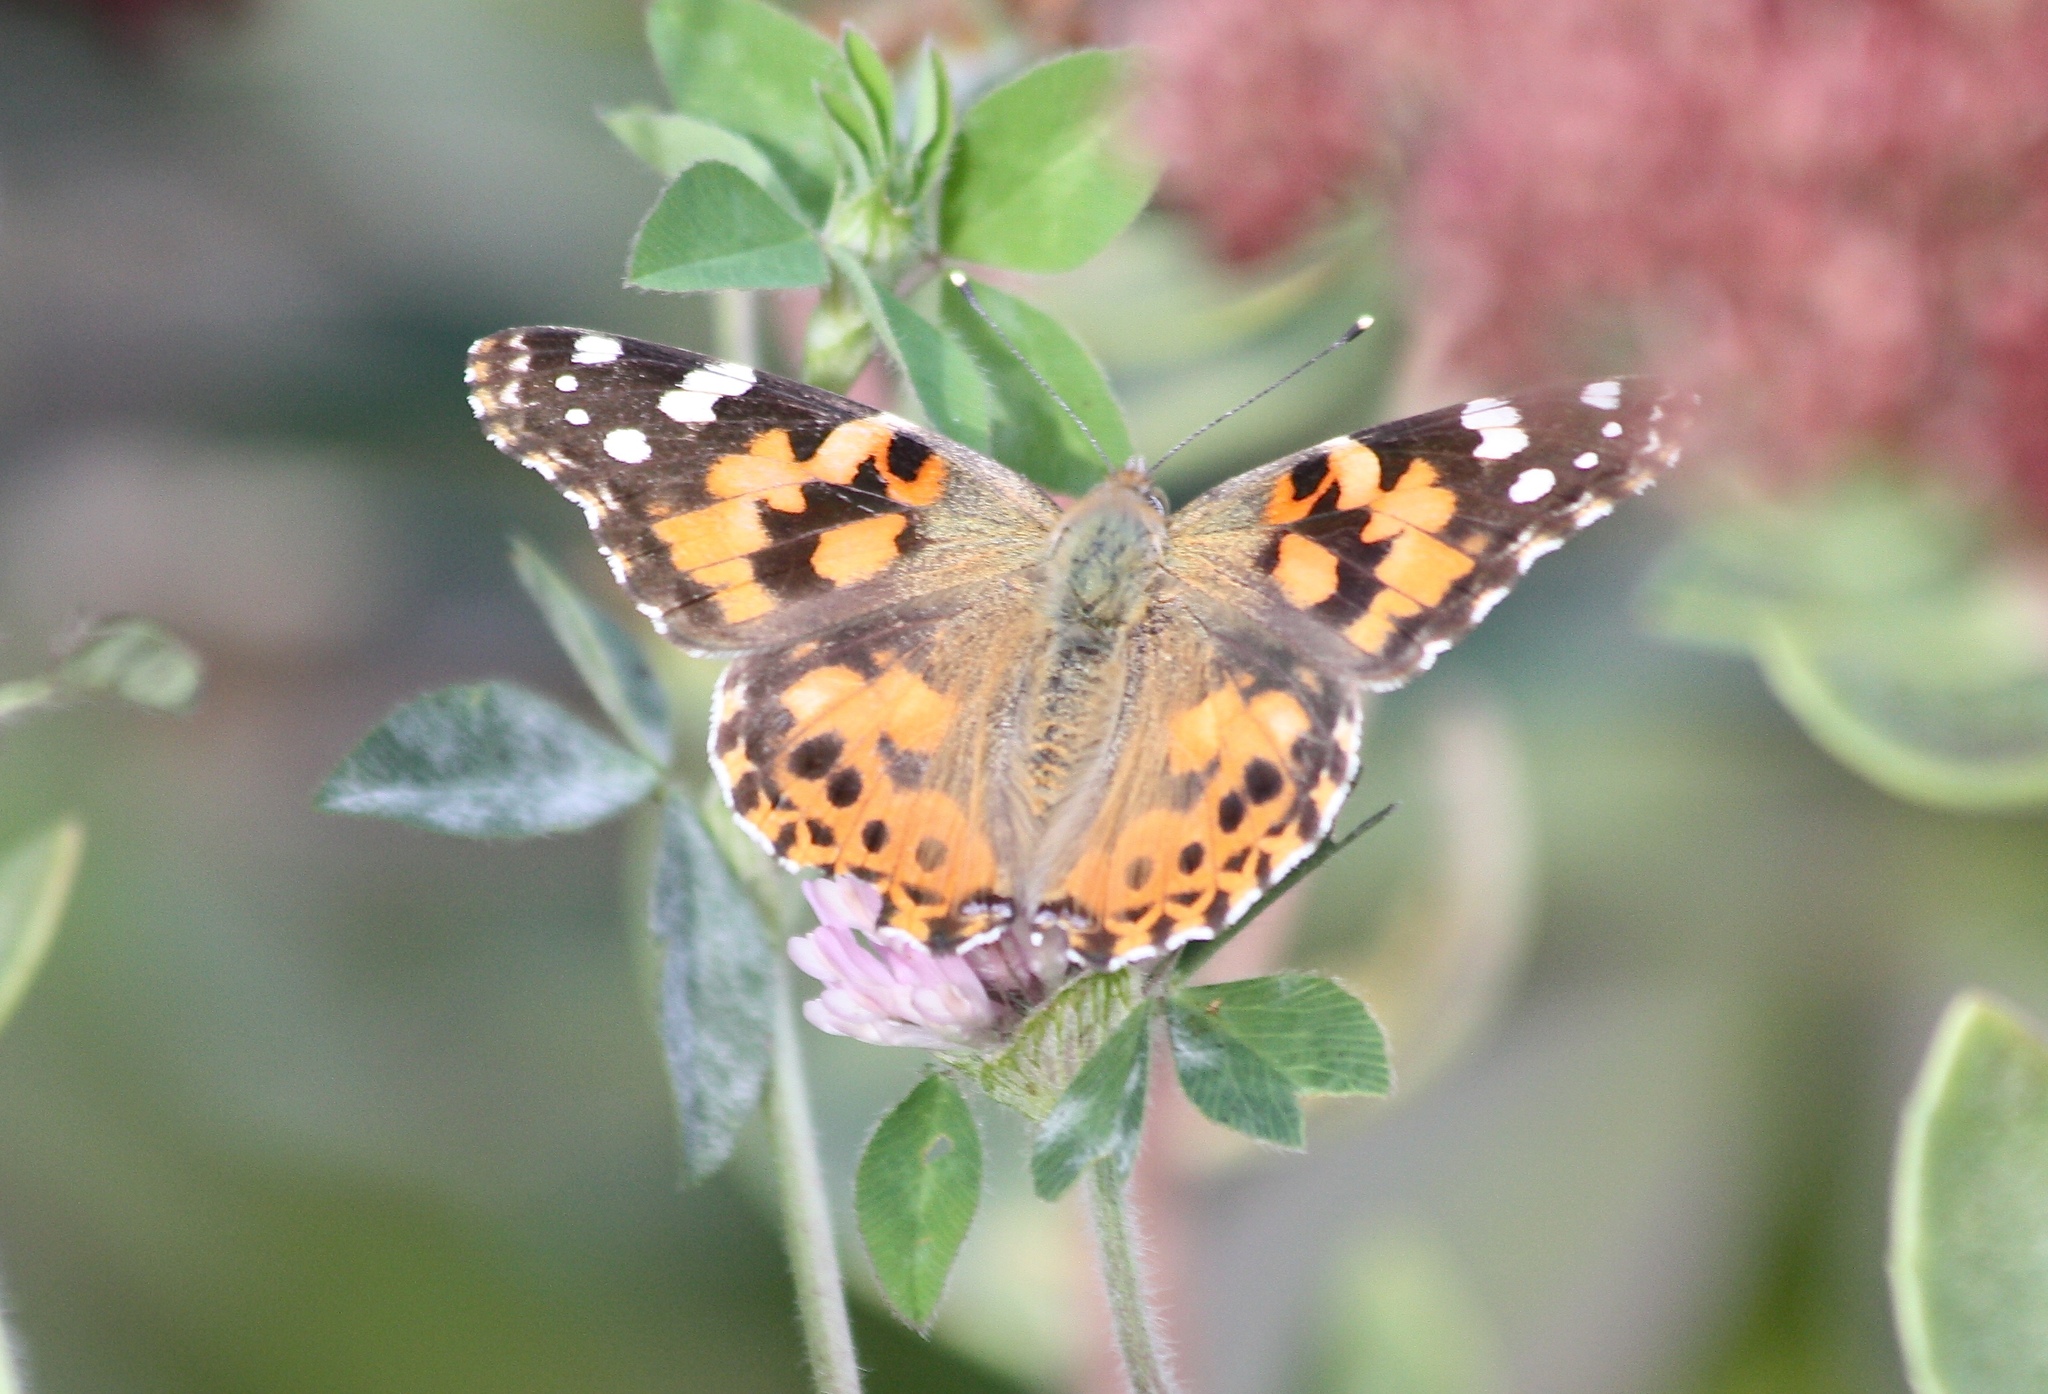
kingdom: Animalia
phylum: Arthropoda
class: Insecta
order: Lepidoptera
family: Nymphalidae
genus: Vanessa
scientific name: Vanessa cardui
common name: Painted lady
